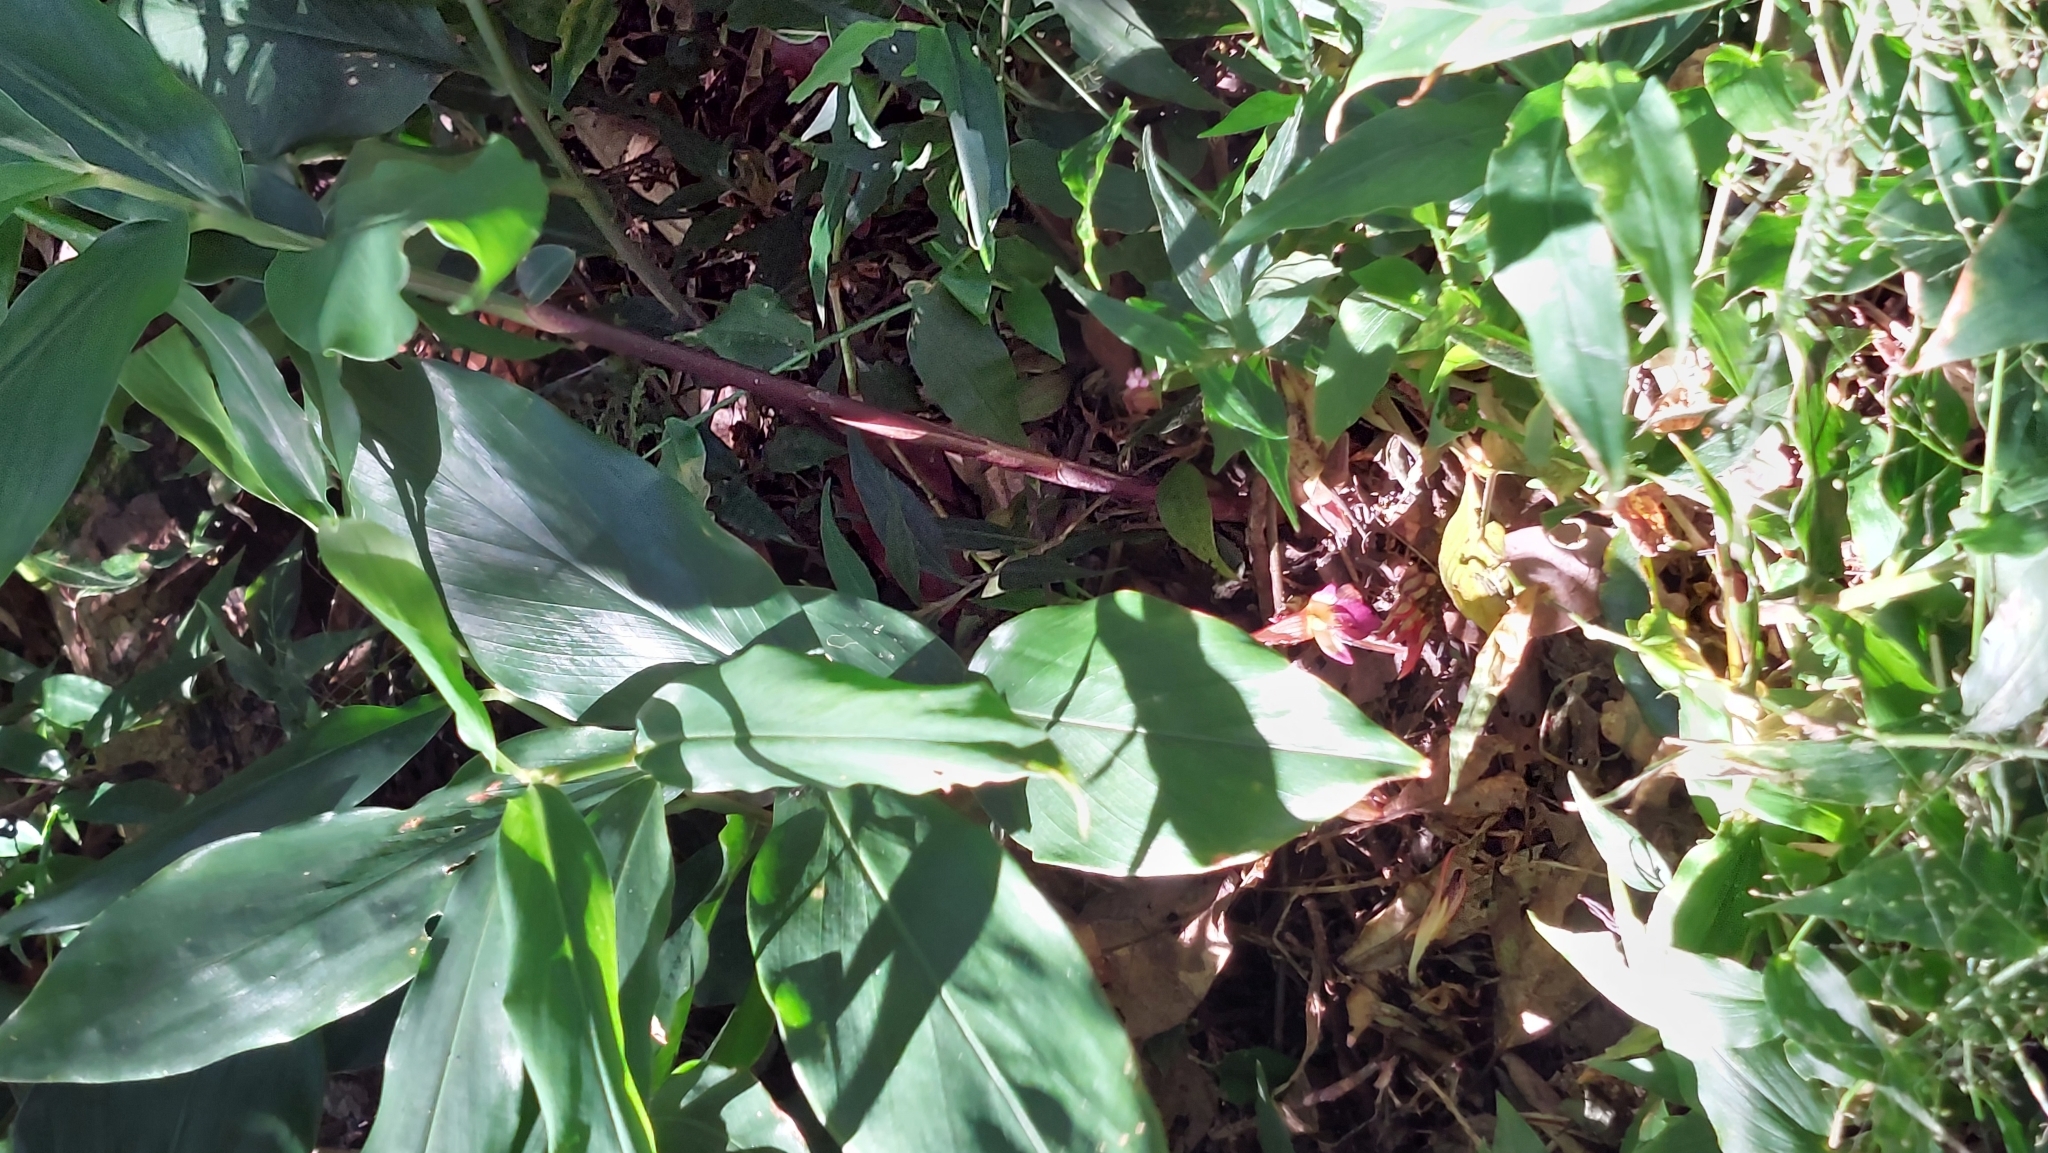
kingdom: Plantae
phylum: Tracheophyta
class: Liliopsida
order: Zingiberales
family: Zingiberaceae
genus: Zingiber
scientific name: Zingiber kawagoii
